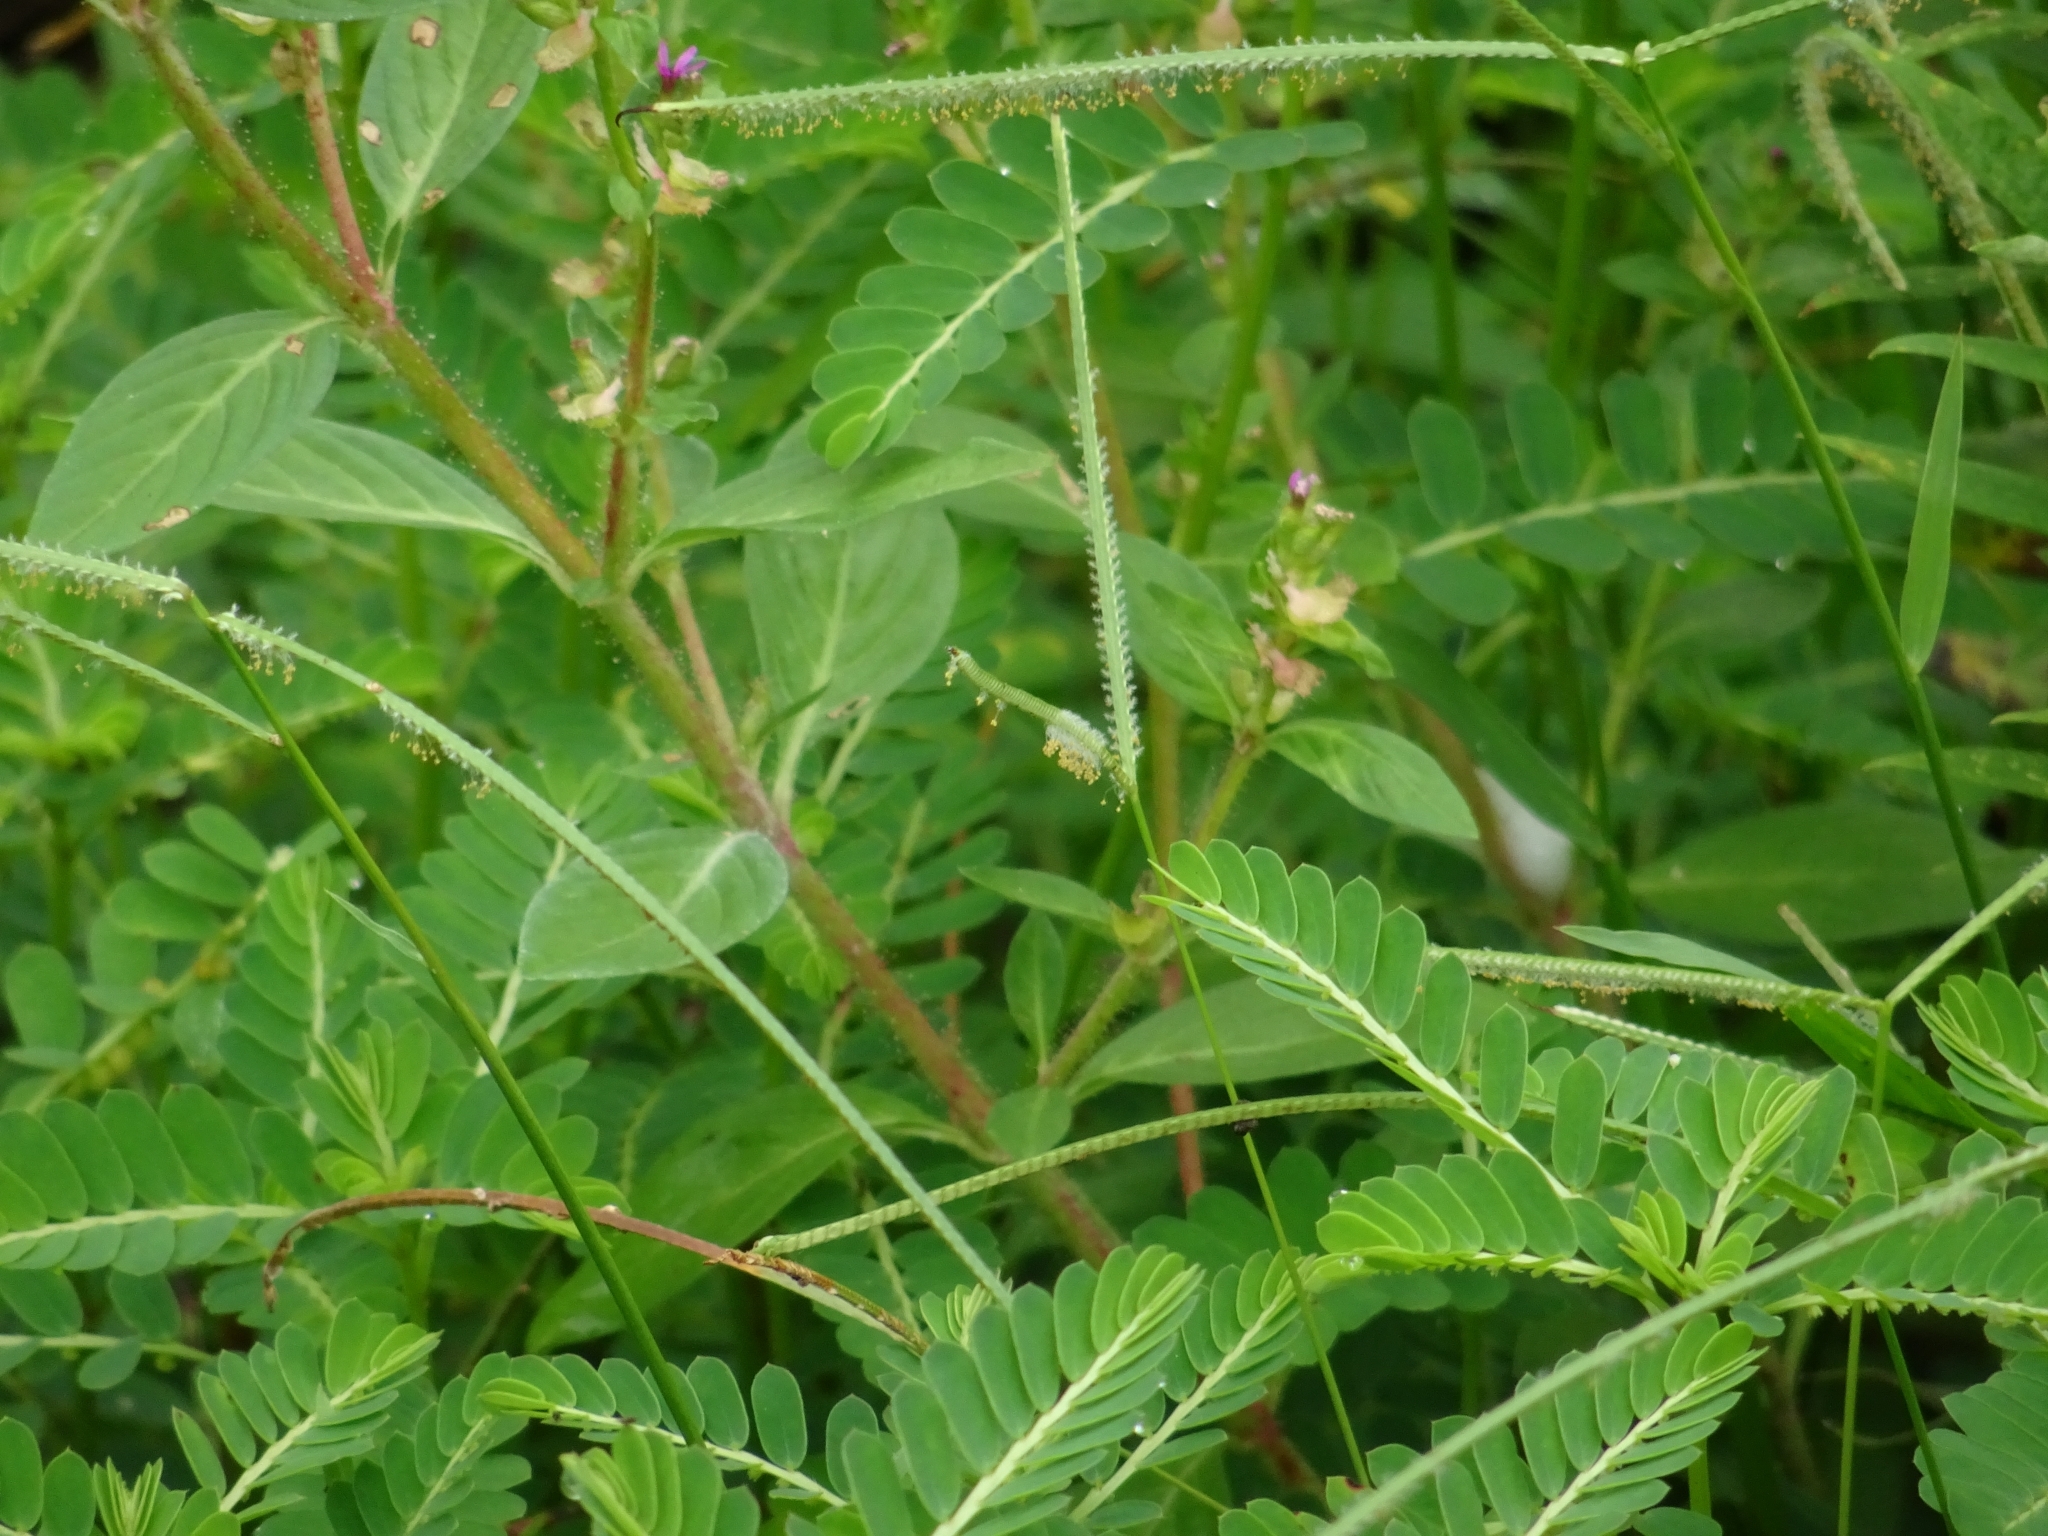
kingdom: Plantae
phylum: Tracheophyta
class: Magnoliopsida
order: Myrtales
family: Lythraceae
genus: Cuphea
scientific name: Cuphea carthagenensis
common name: Colombian waxweed
